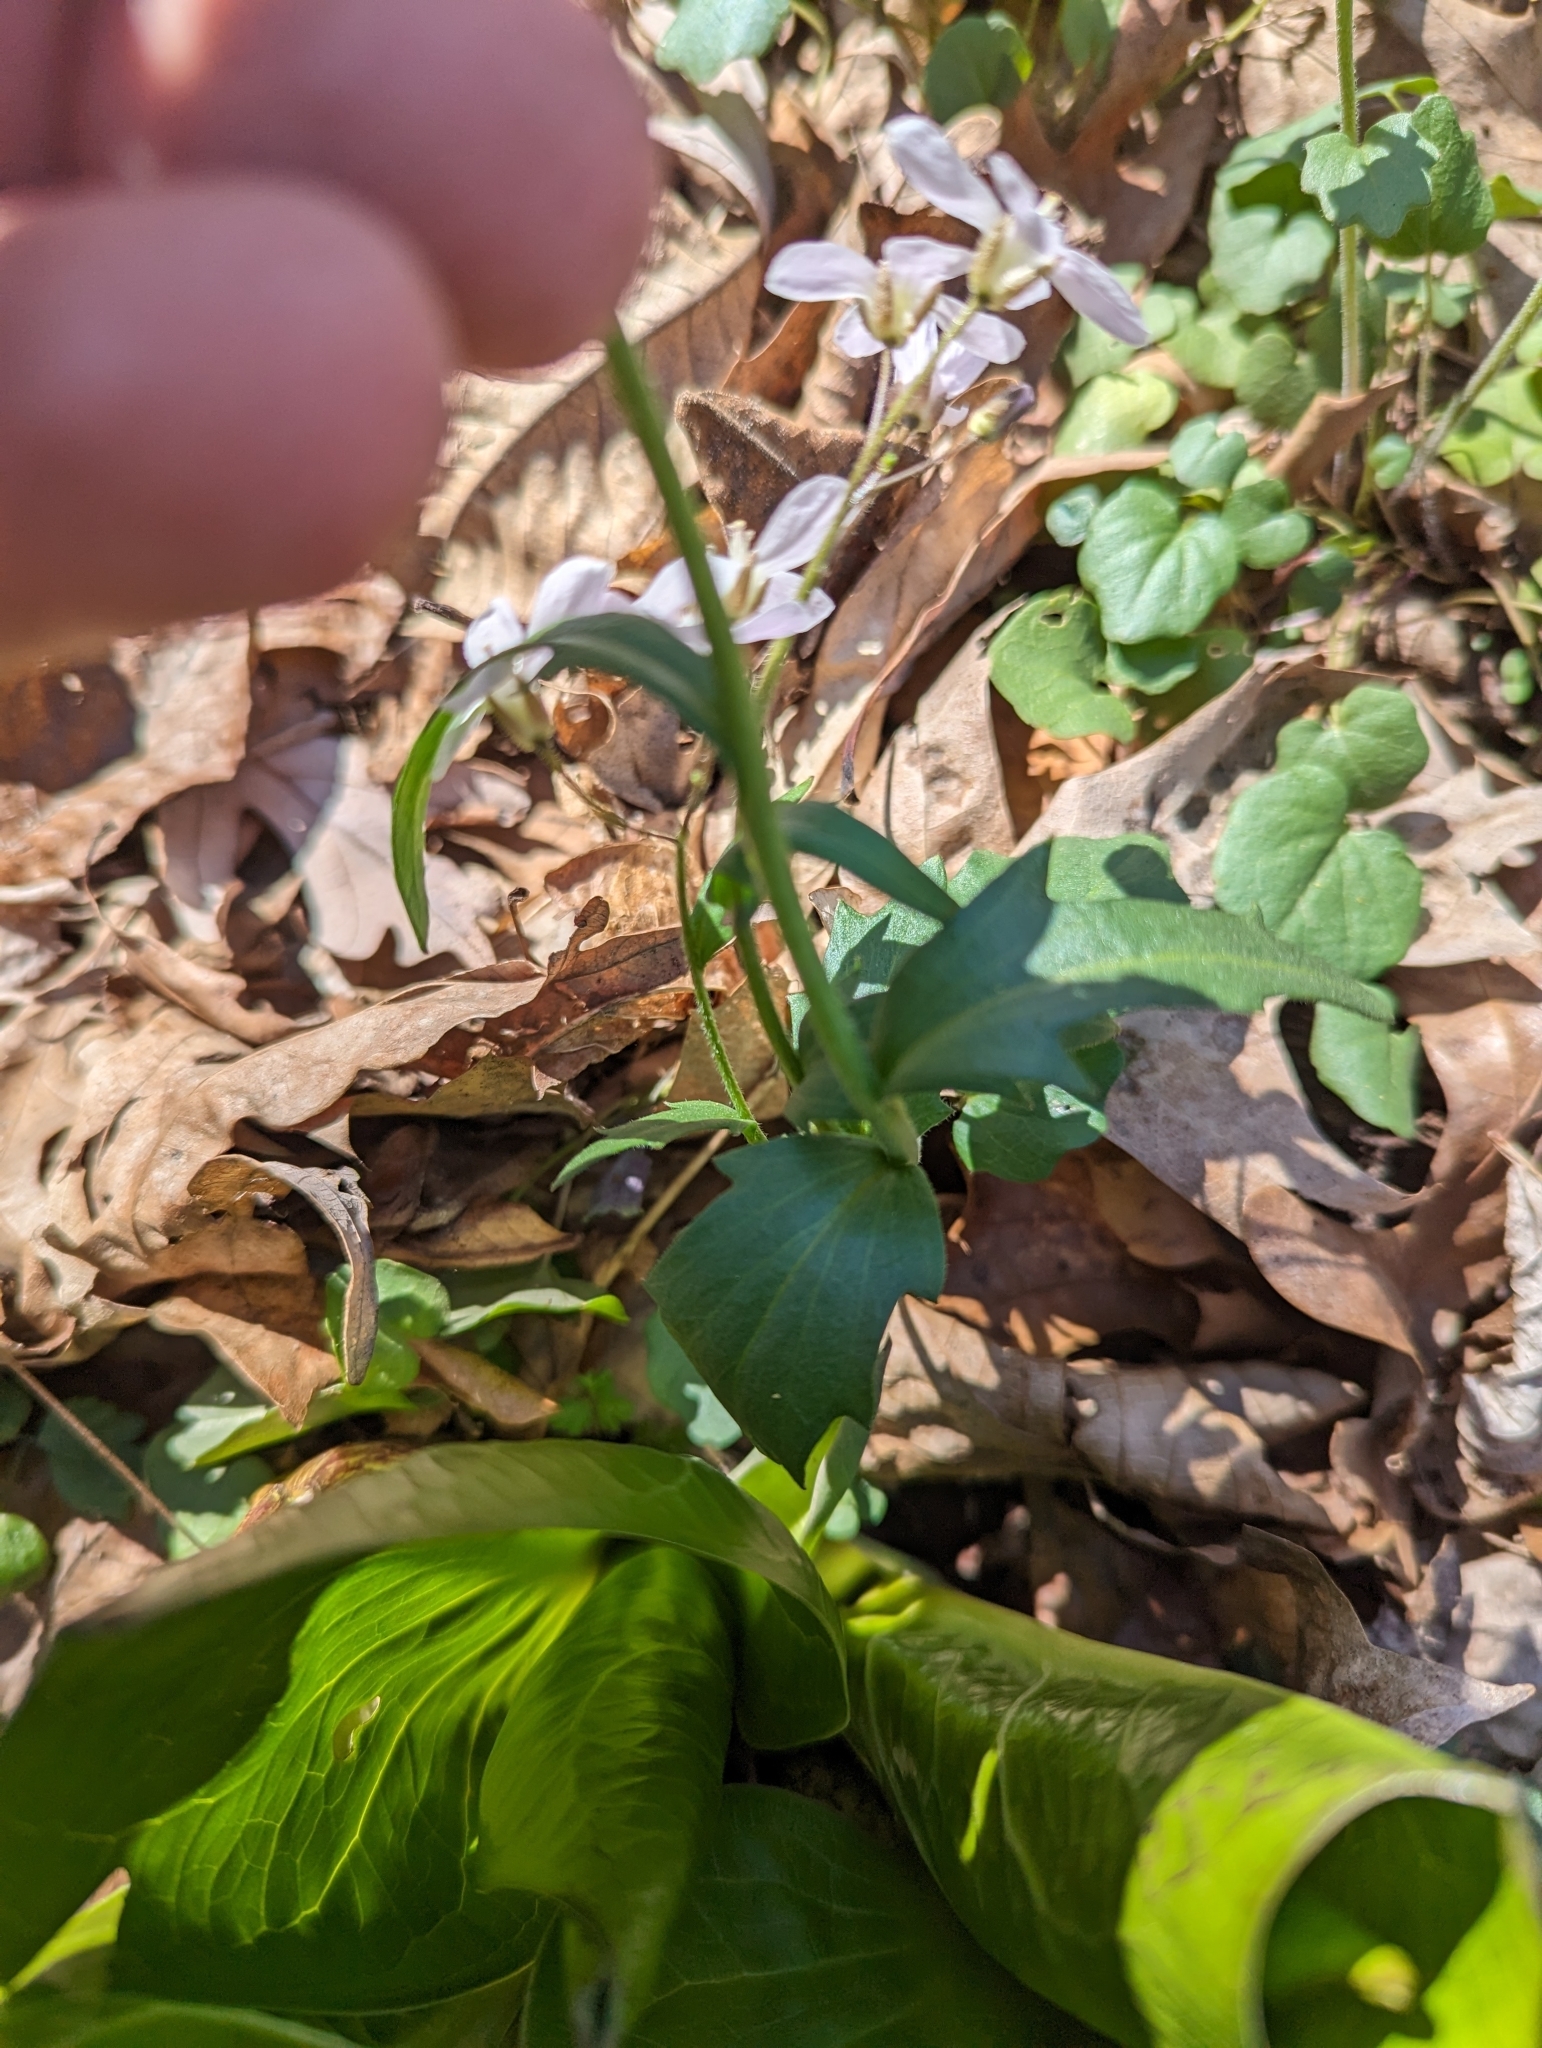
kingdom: Plantae
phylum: Tracheophyta
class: Magnoliopsida
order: Brassicales
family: Brassicaceae
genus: Cardamine
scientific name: Cardamine douglassii
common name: Purple cress
